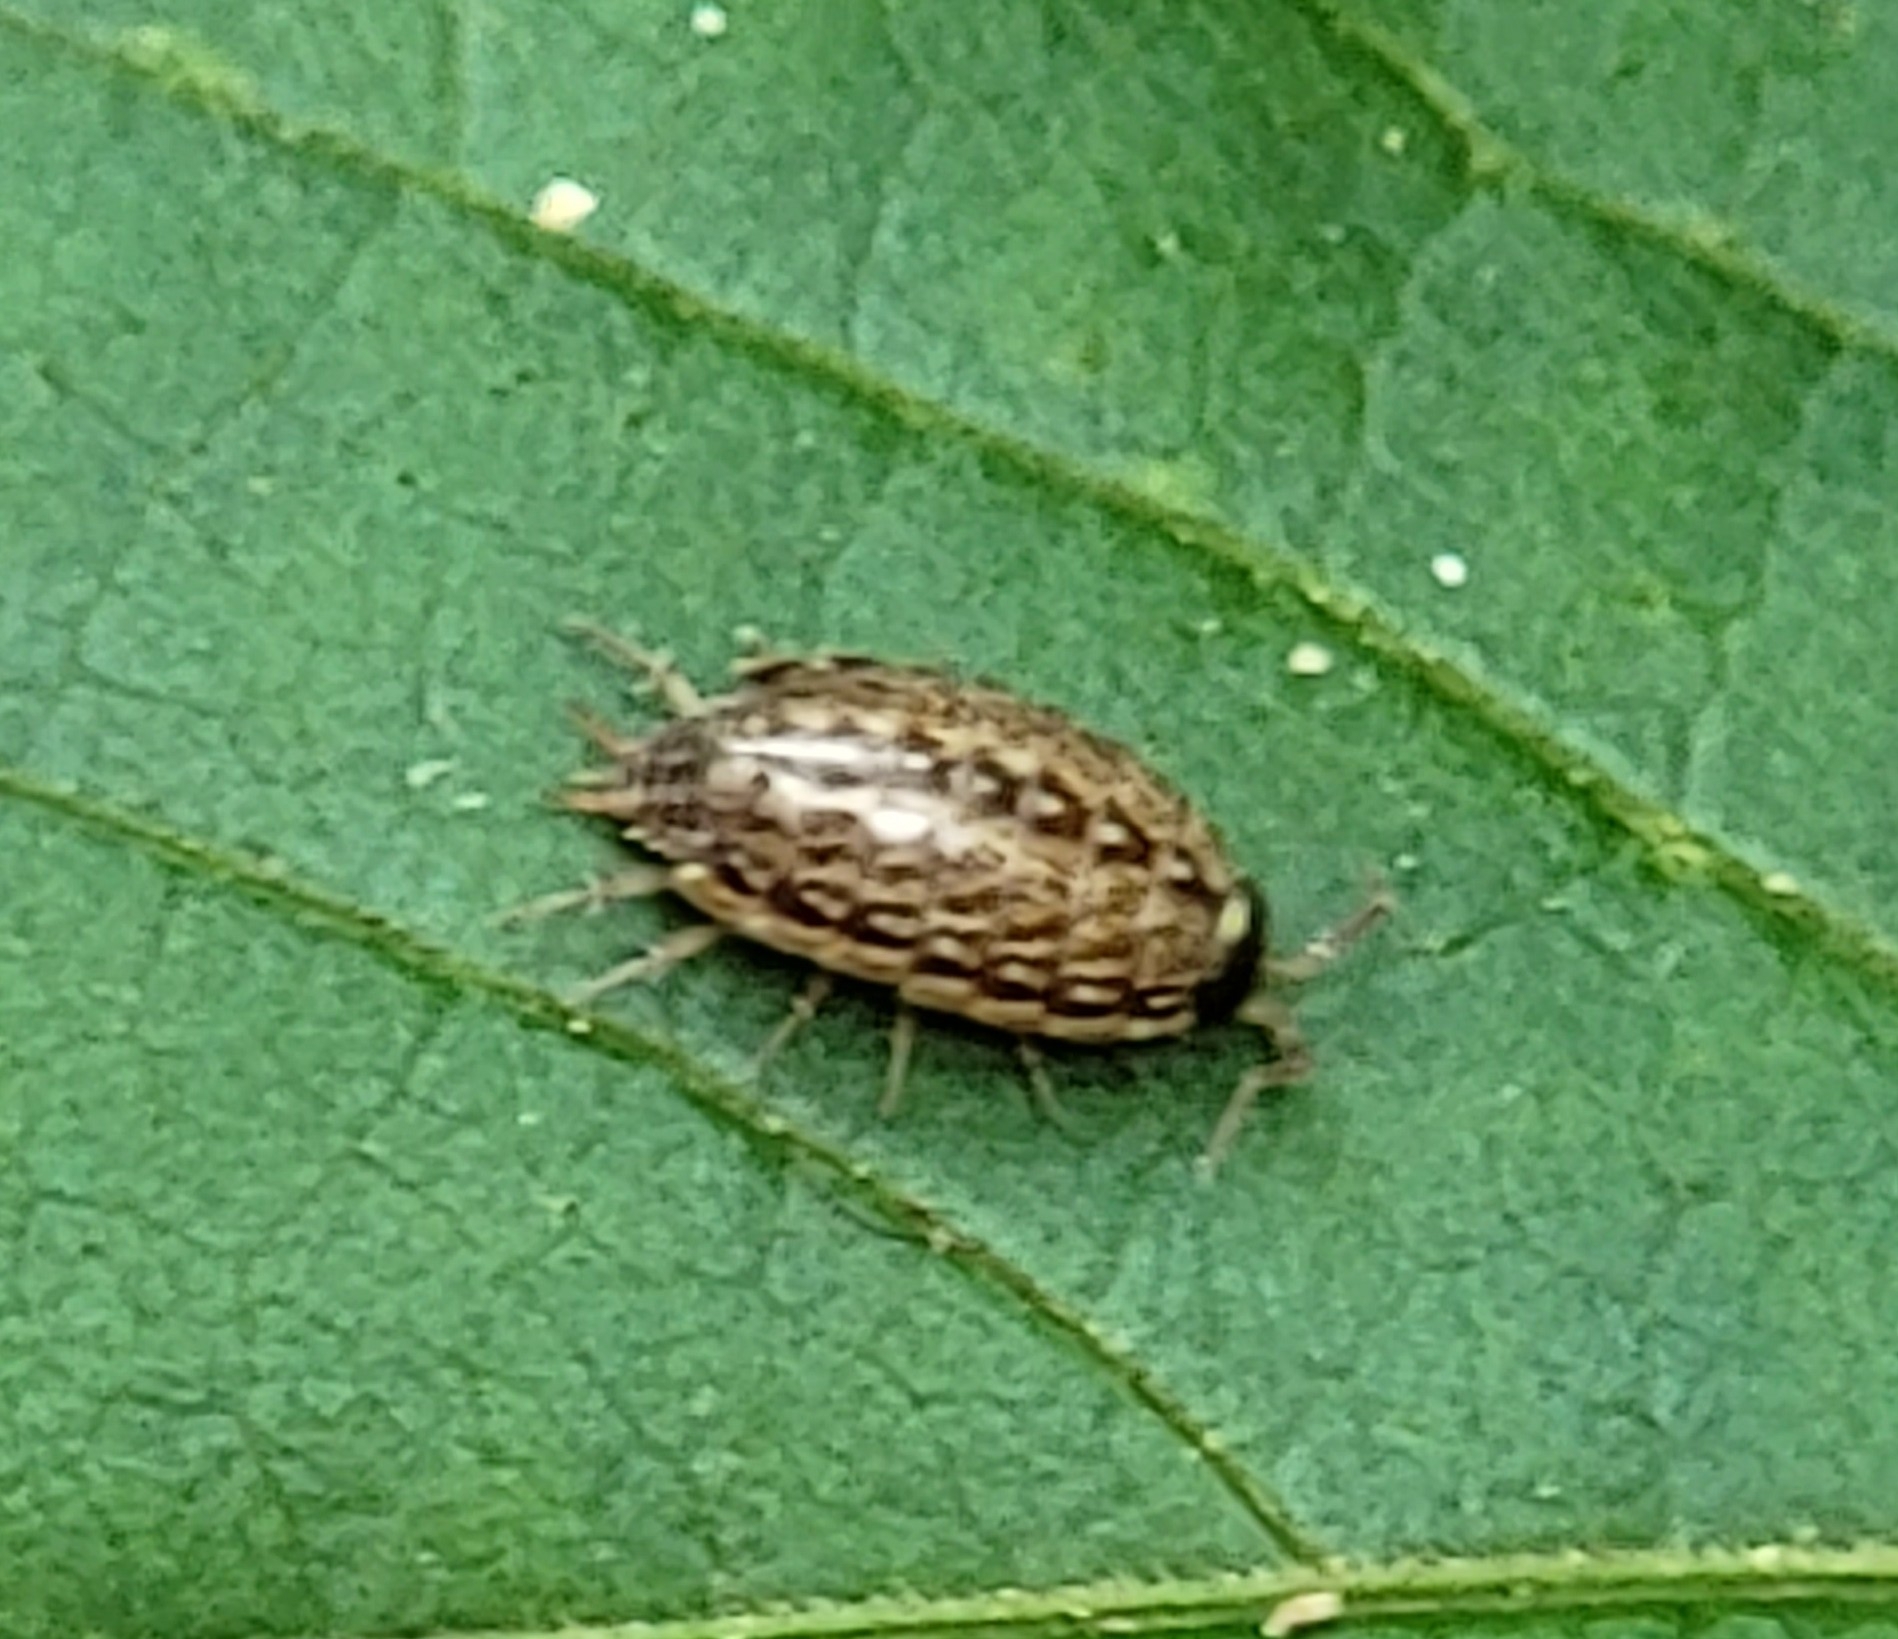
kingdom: Animalia
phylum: Arthropoda
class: Malacostraca
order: Isopoda
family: Philosciidae
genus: Philoscia
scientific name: Philoscia muscorum
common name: Common striped woodlouse
